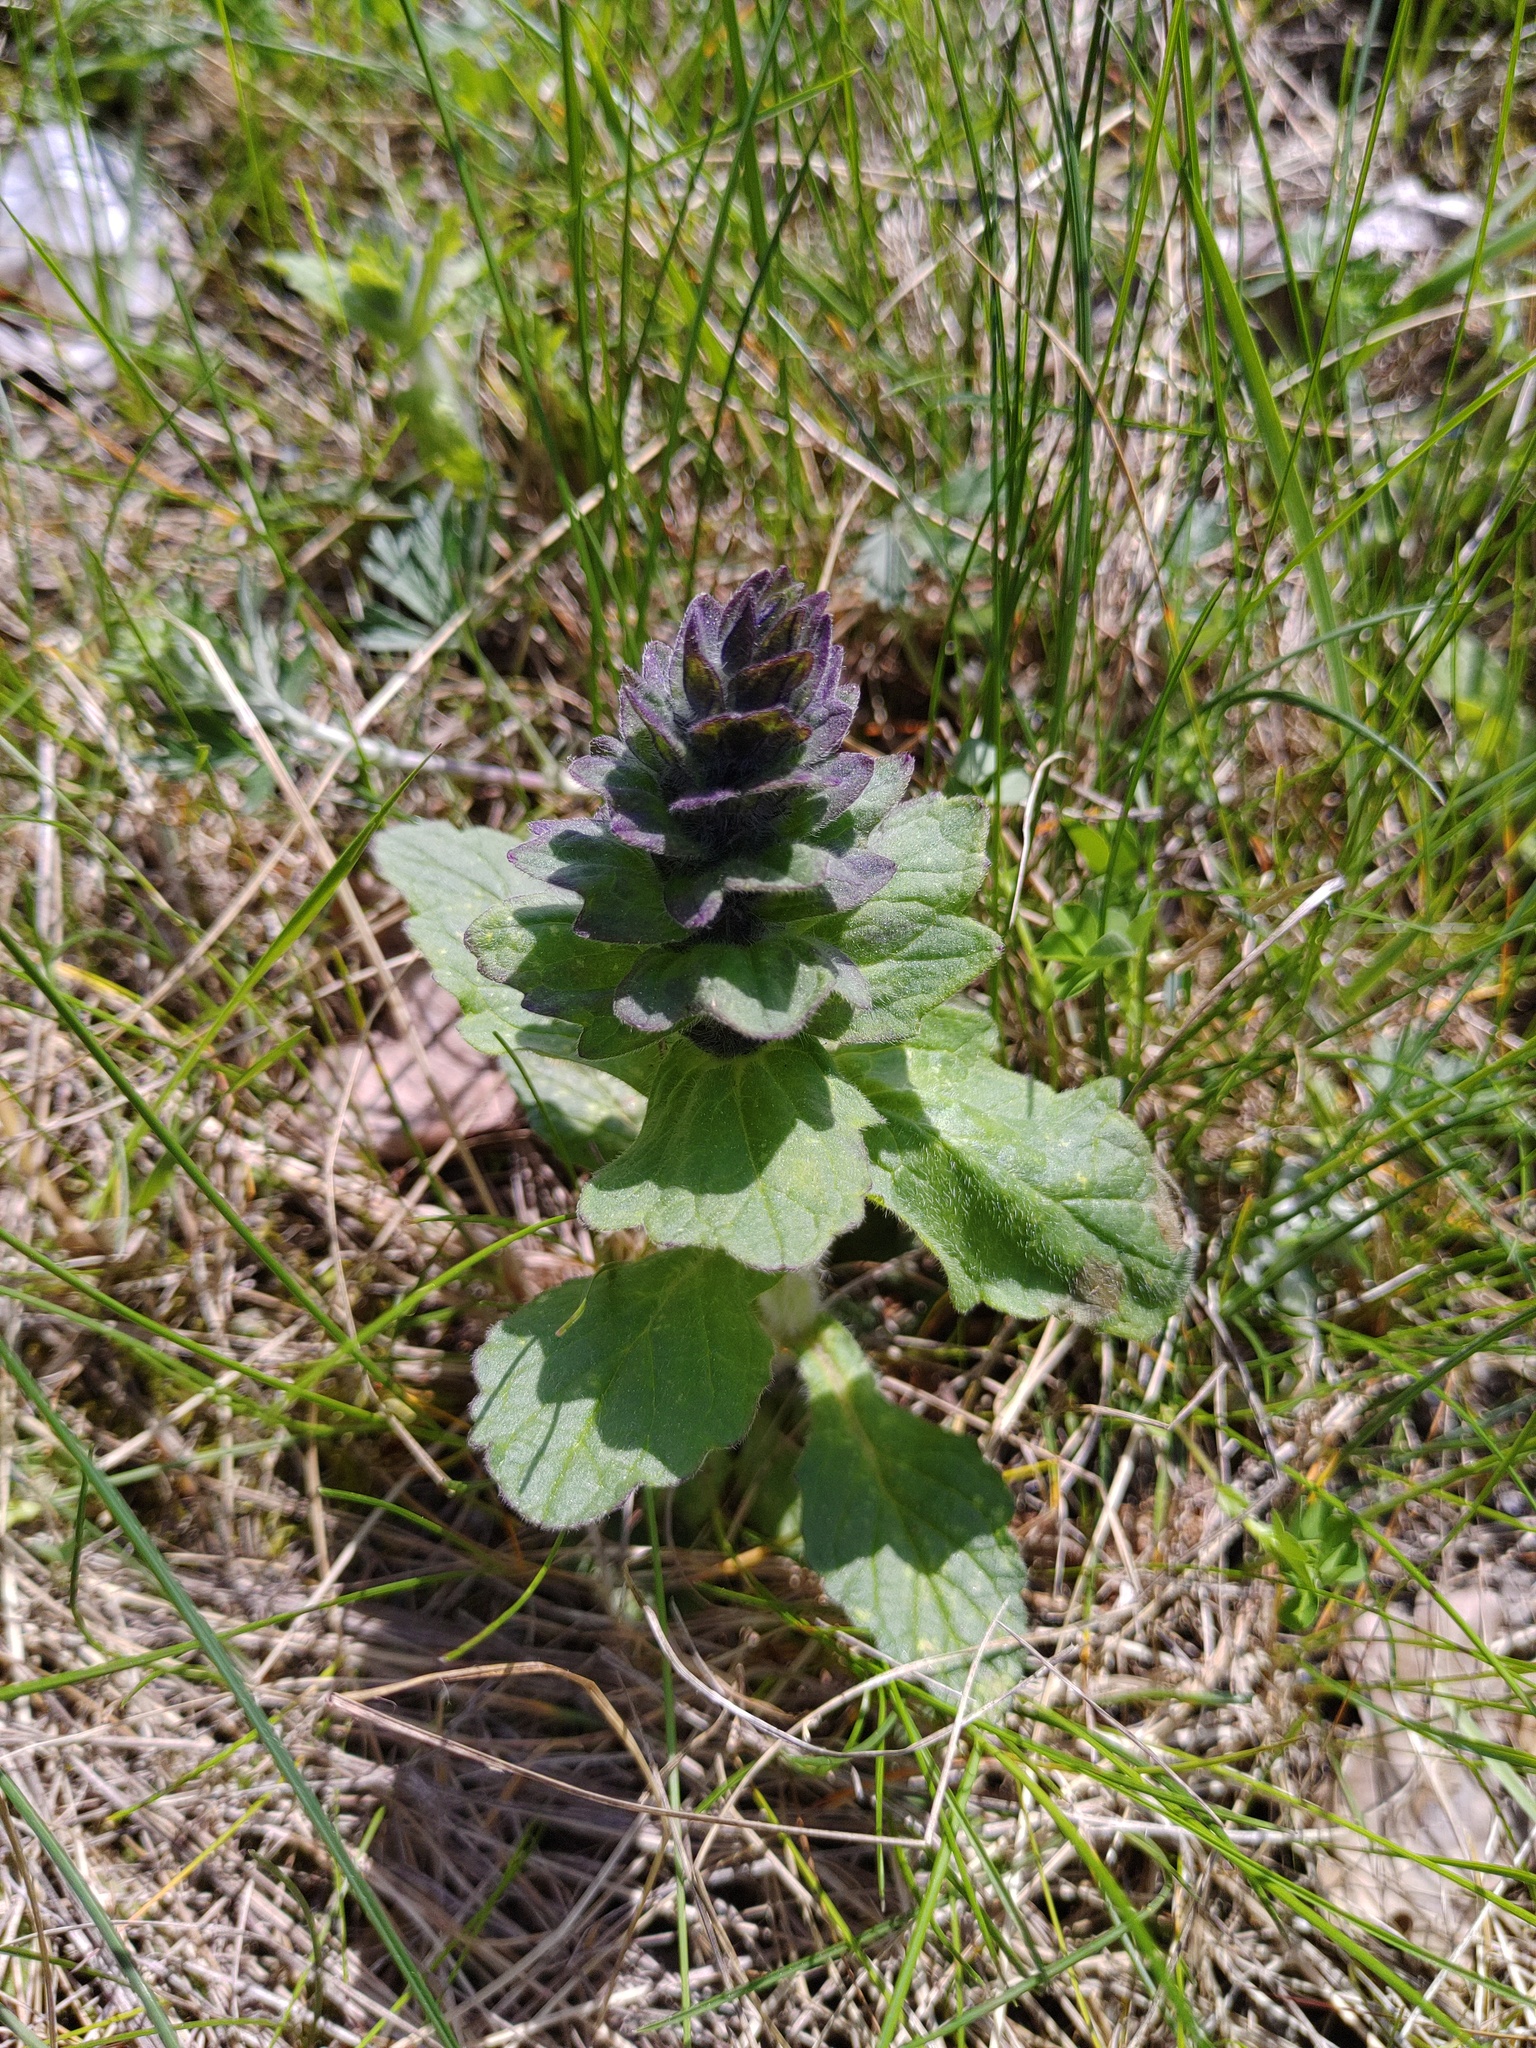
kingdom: Plantae
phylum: Tracheophyta
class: Magnoliopsida
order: Lamiales
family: Lamiaceae
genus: Ajuga
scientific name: Ajuga genevensis
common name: Blue bugle
